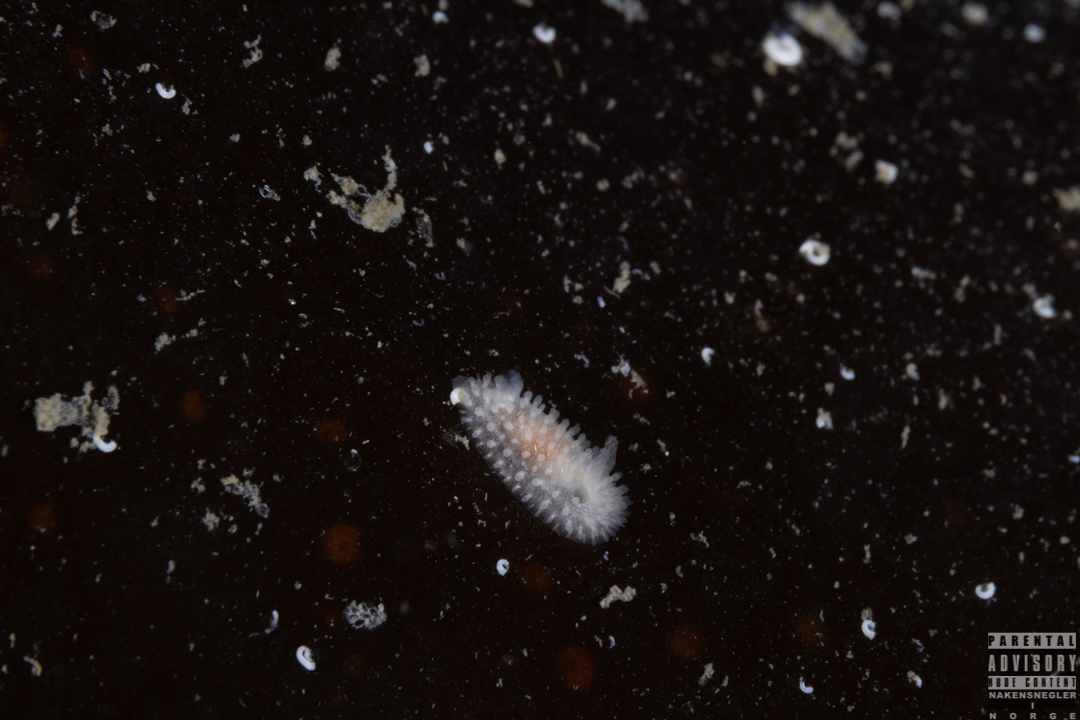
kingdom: Animalia
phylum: Mollusca
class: Gastropoda
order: Nudibranchia
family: Onchidorididae
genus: Onchidoris
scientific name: Onchidoris muricata
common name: Rough doris
